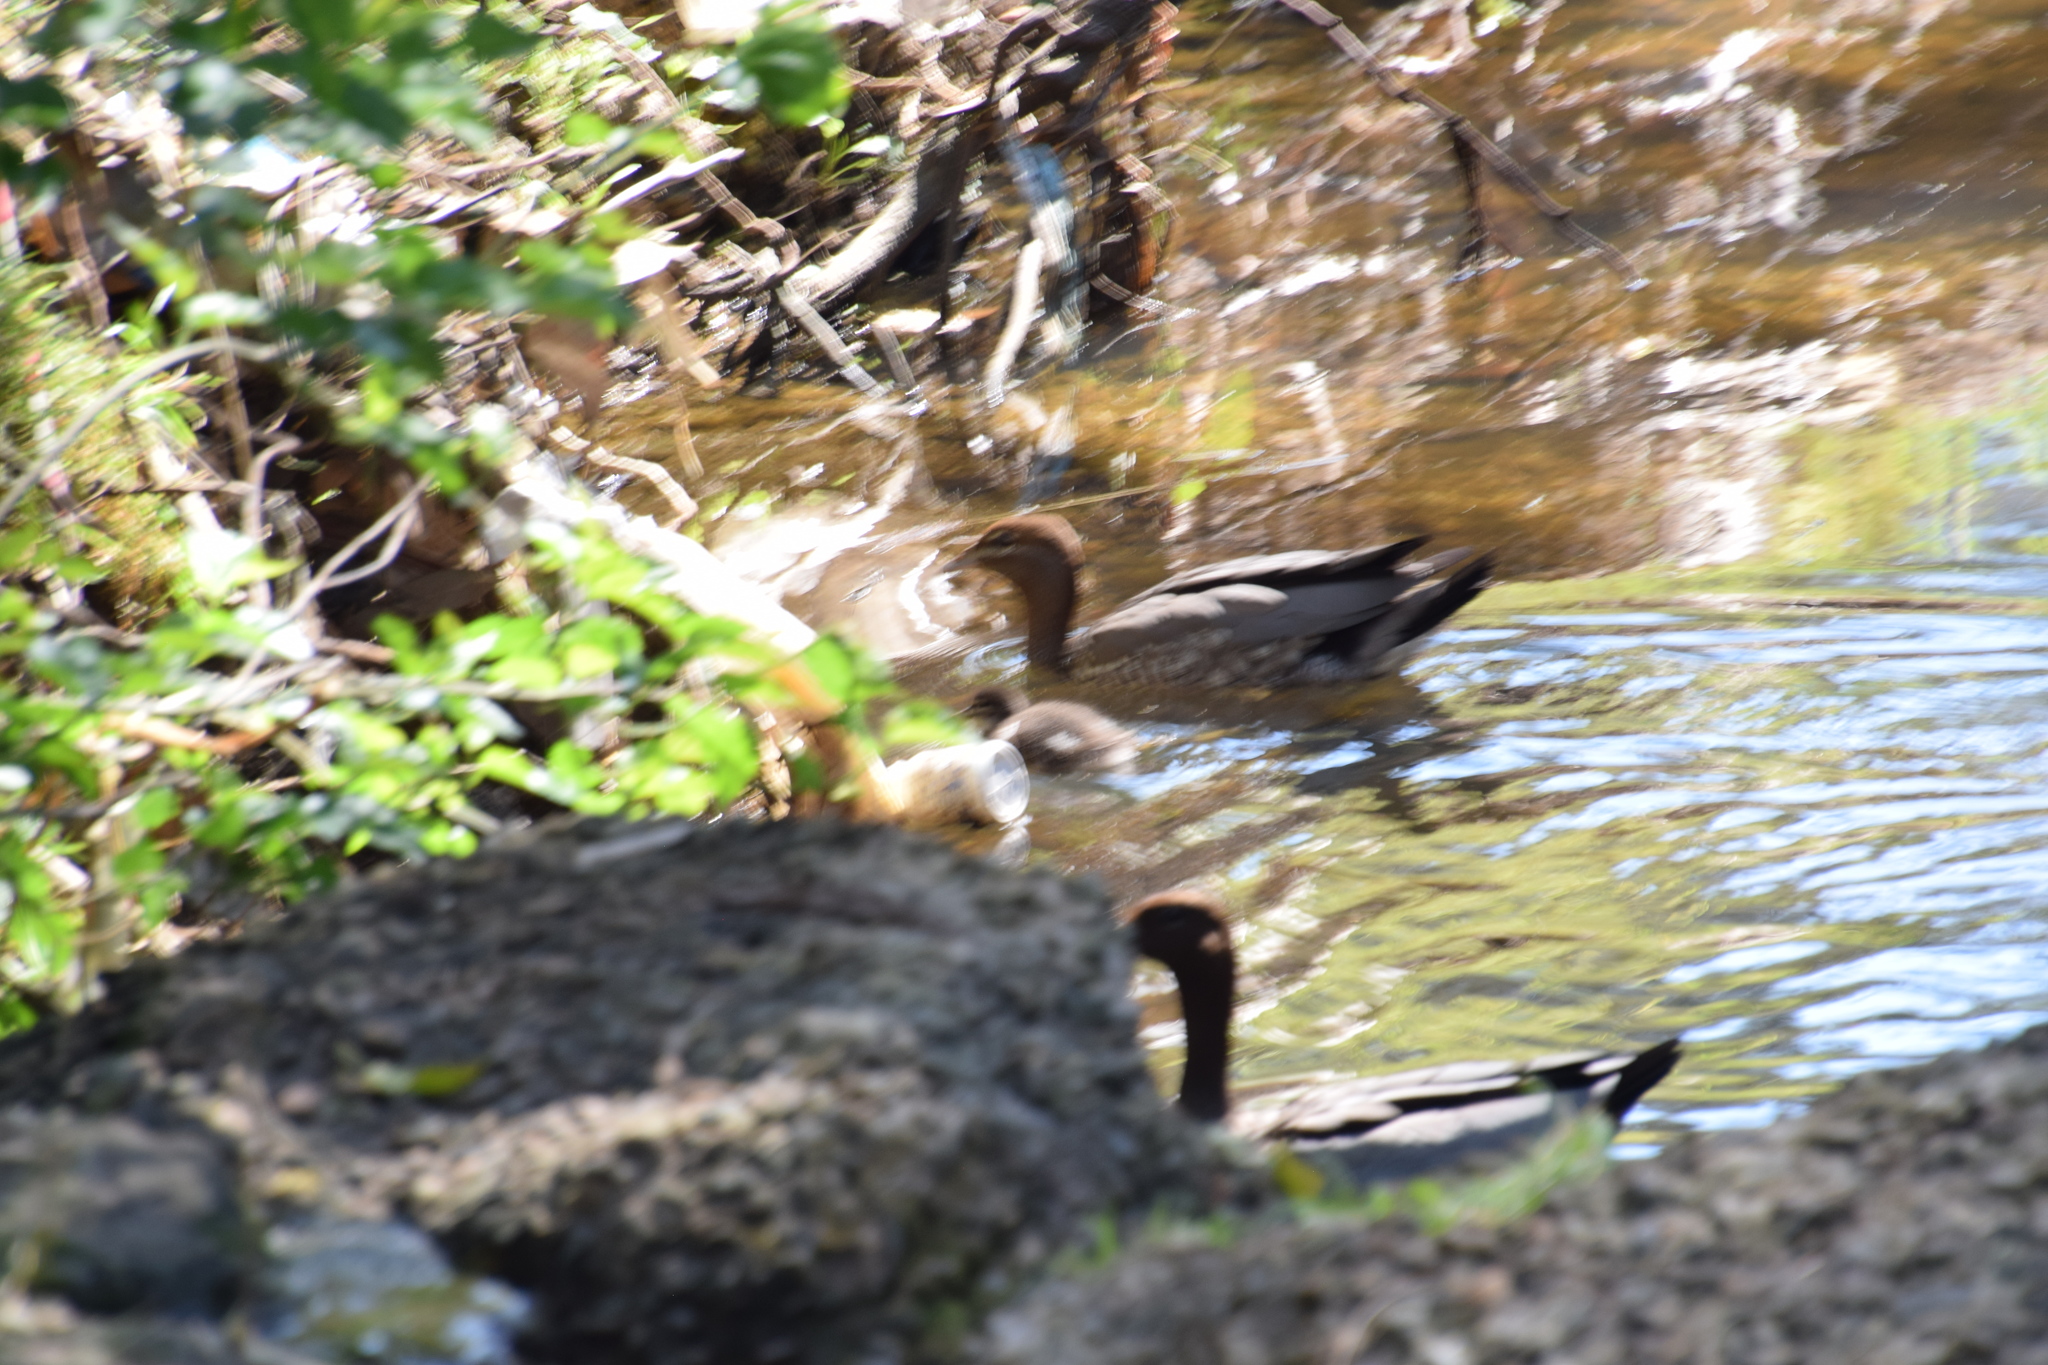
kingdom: Animalia
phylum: Chordata
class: Aves
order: Anseriformes
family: Anatidae
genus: Chenonetta
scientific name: Chenonetta jubata
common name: Maned duck
